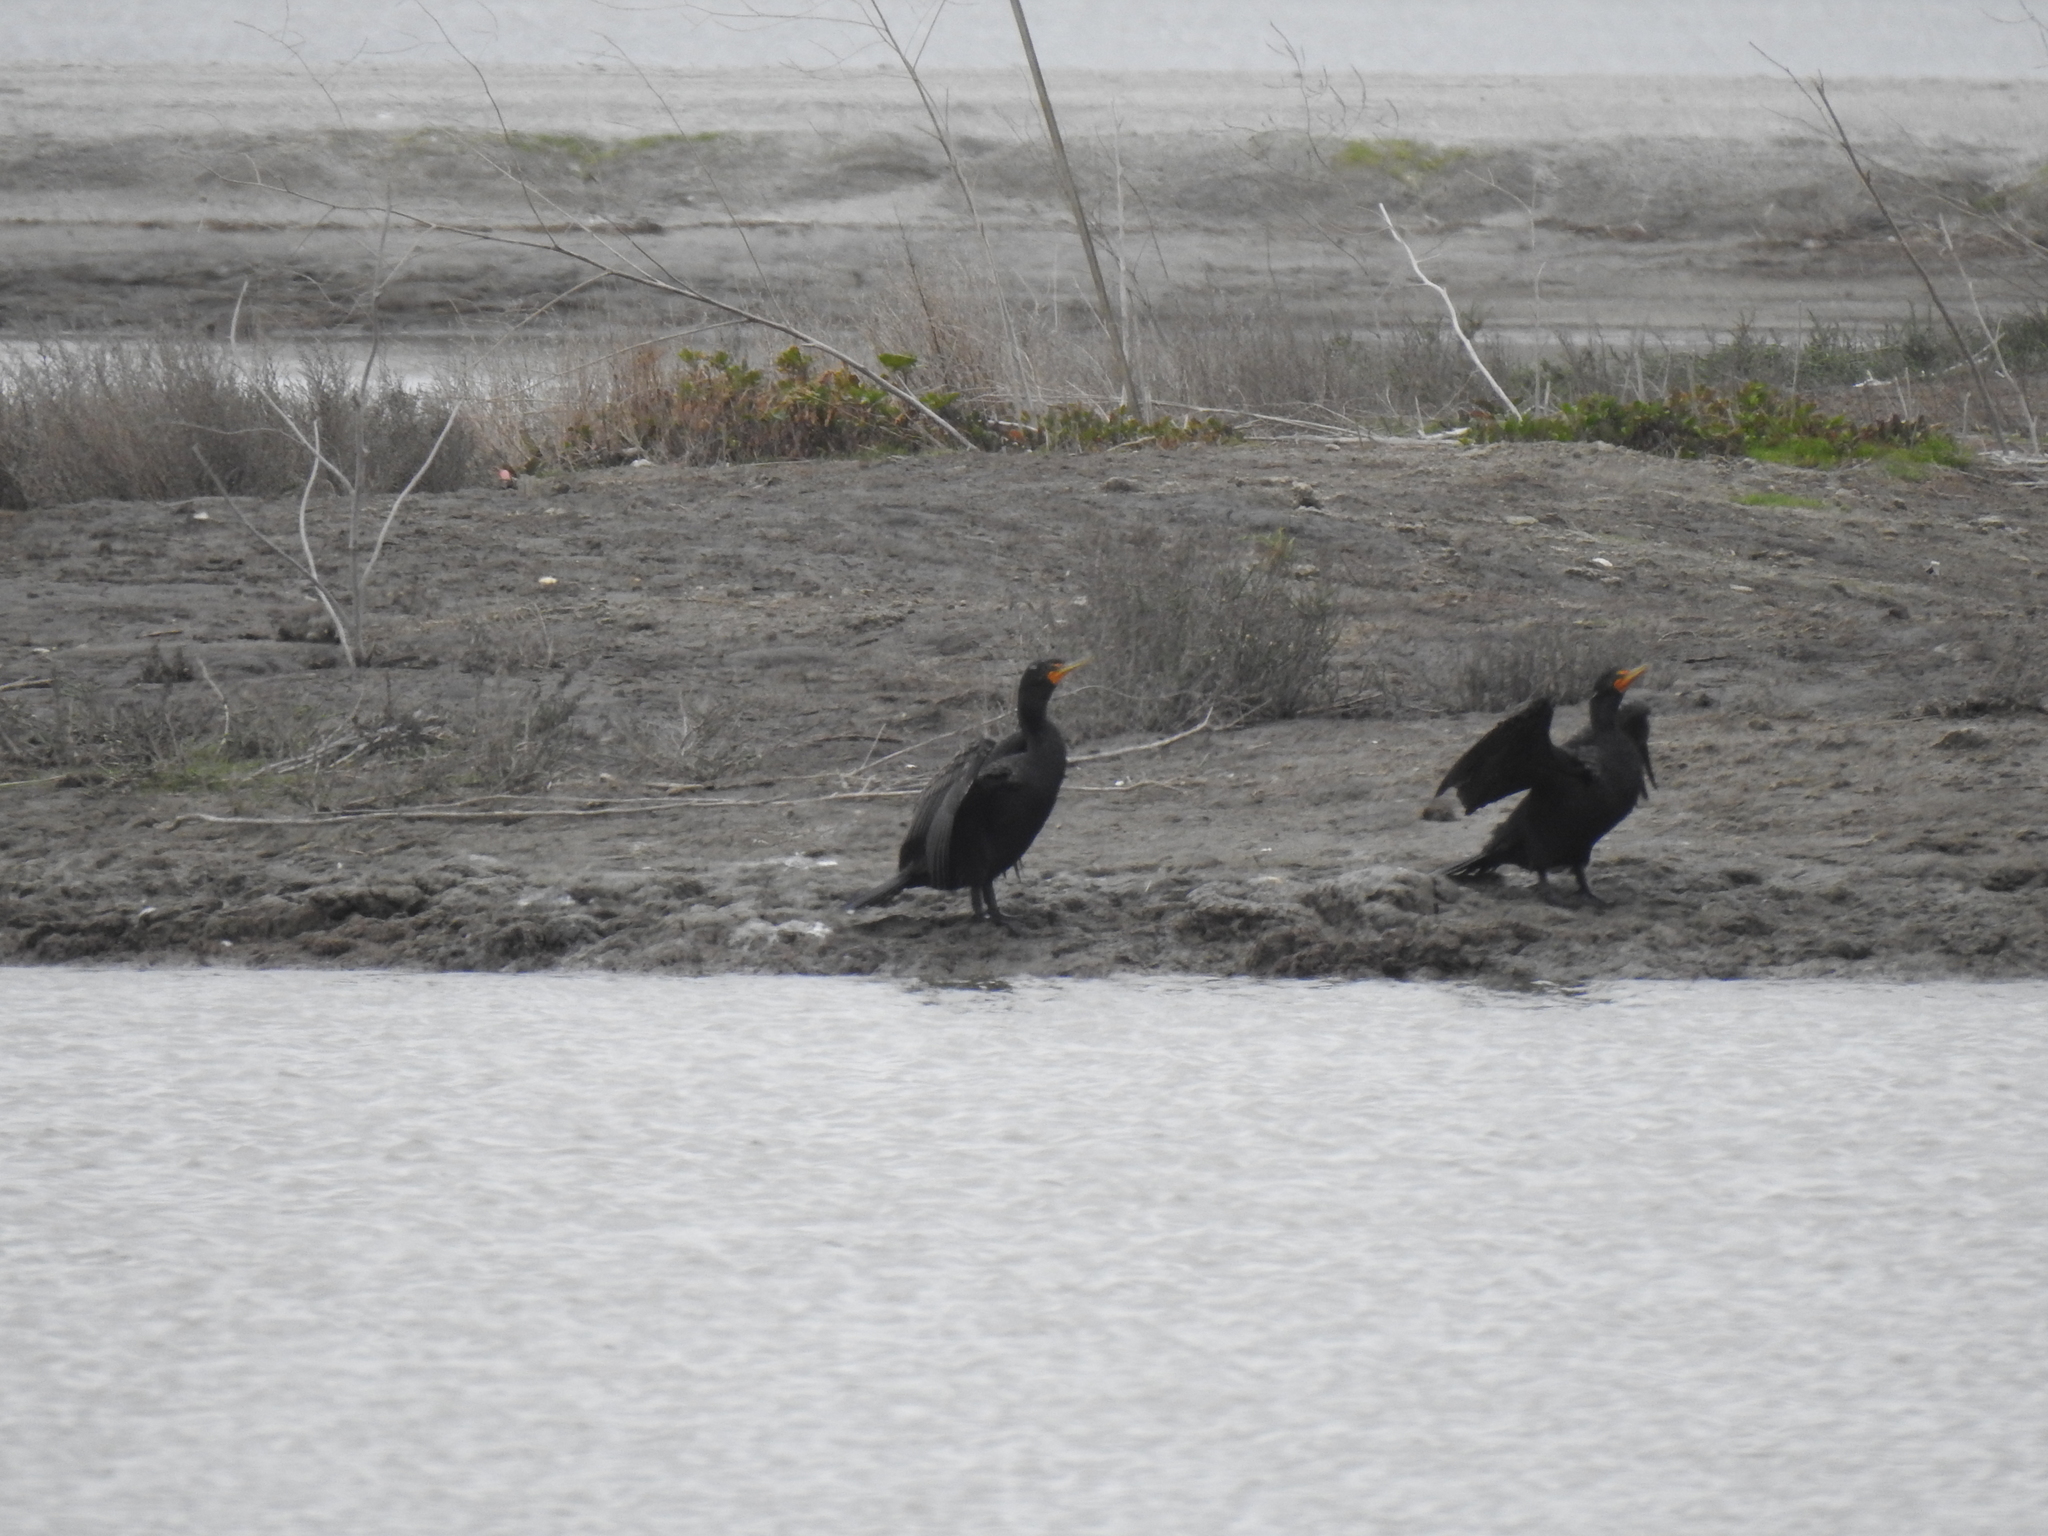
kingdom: Animalia
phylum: Chordata
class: Aves
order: Suliformes
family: Phalacrocoracidae
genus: Phalacrocorax
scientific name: Phalacrocorax auritus
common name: Double-crested cormorant
